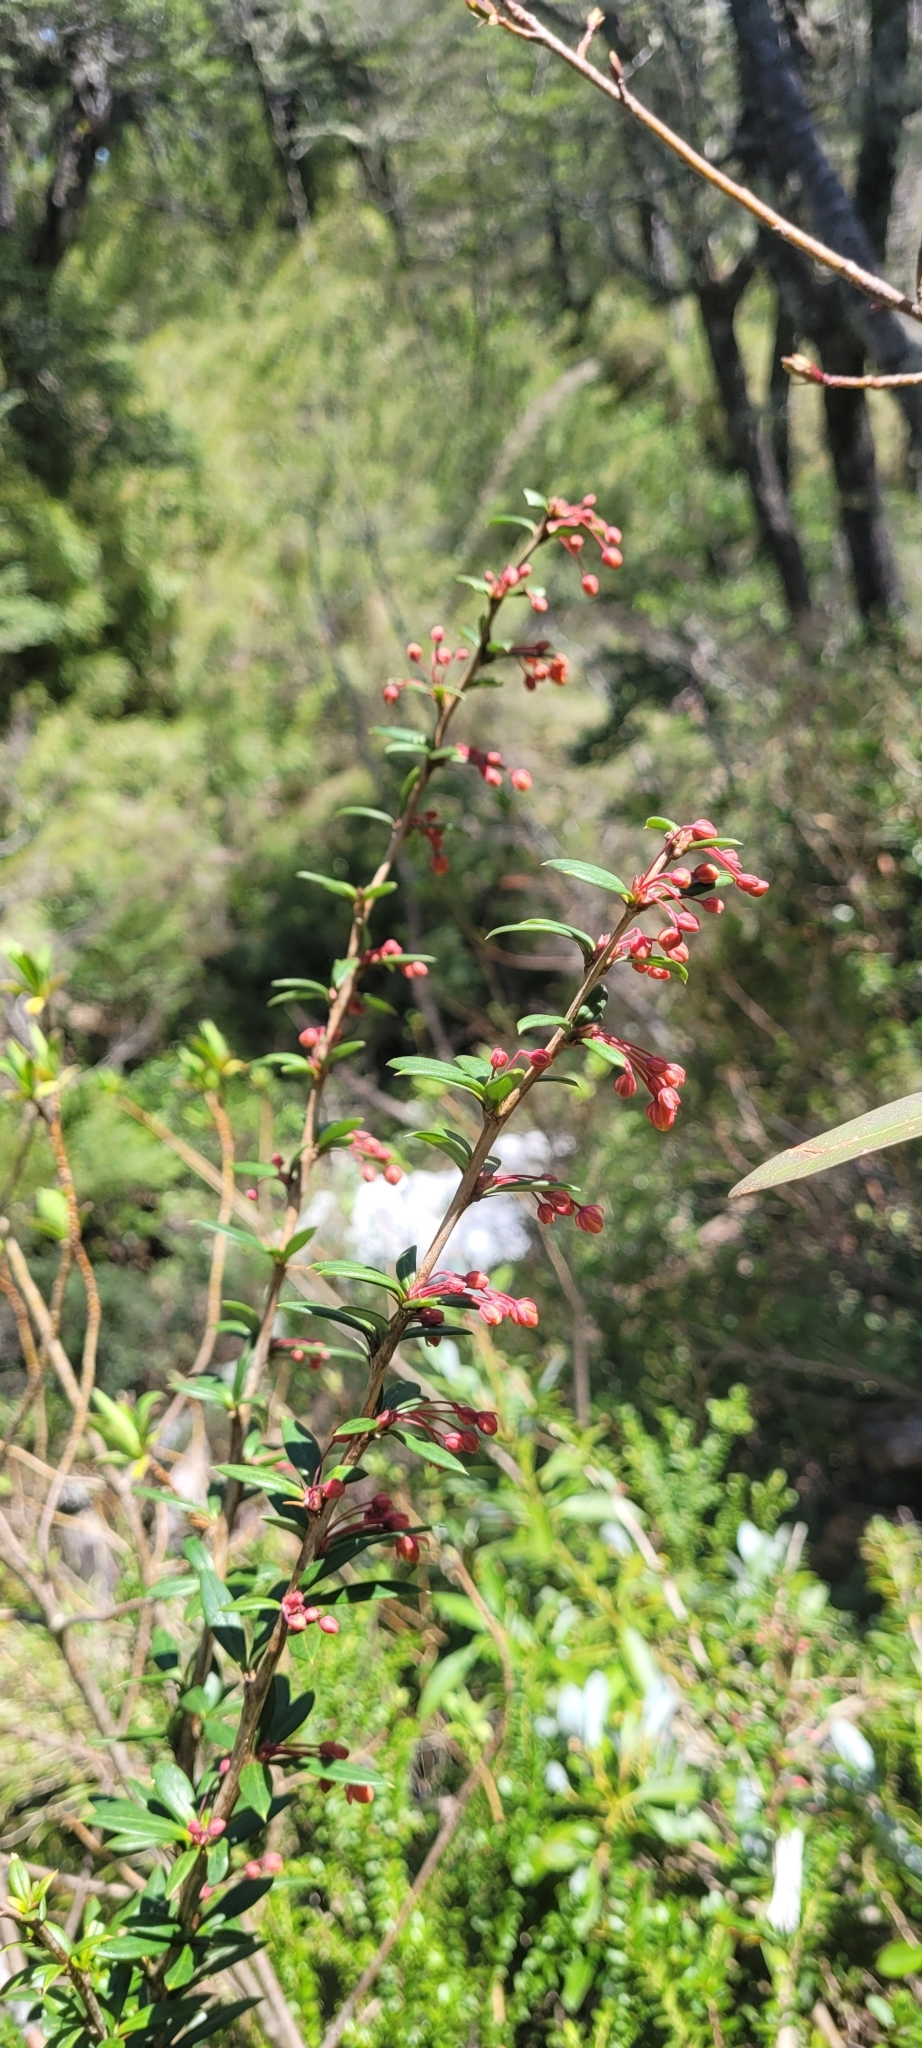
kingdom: Plantae
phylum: Tracheophyta
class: Magnoliopsida
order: Ranunculales
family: Berberidaceae
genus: Berberis
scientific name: Berberis trigona
